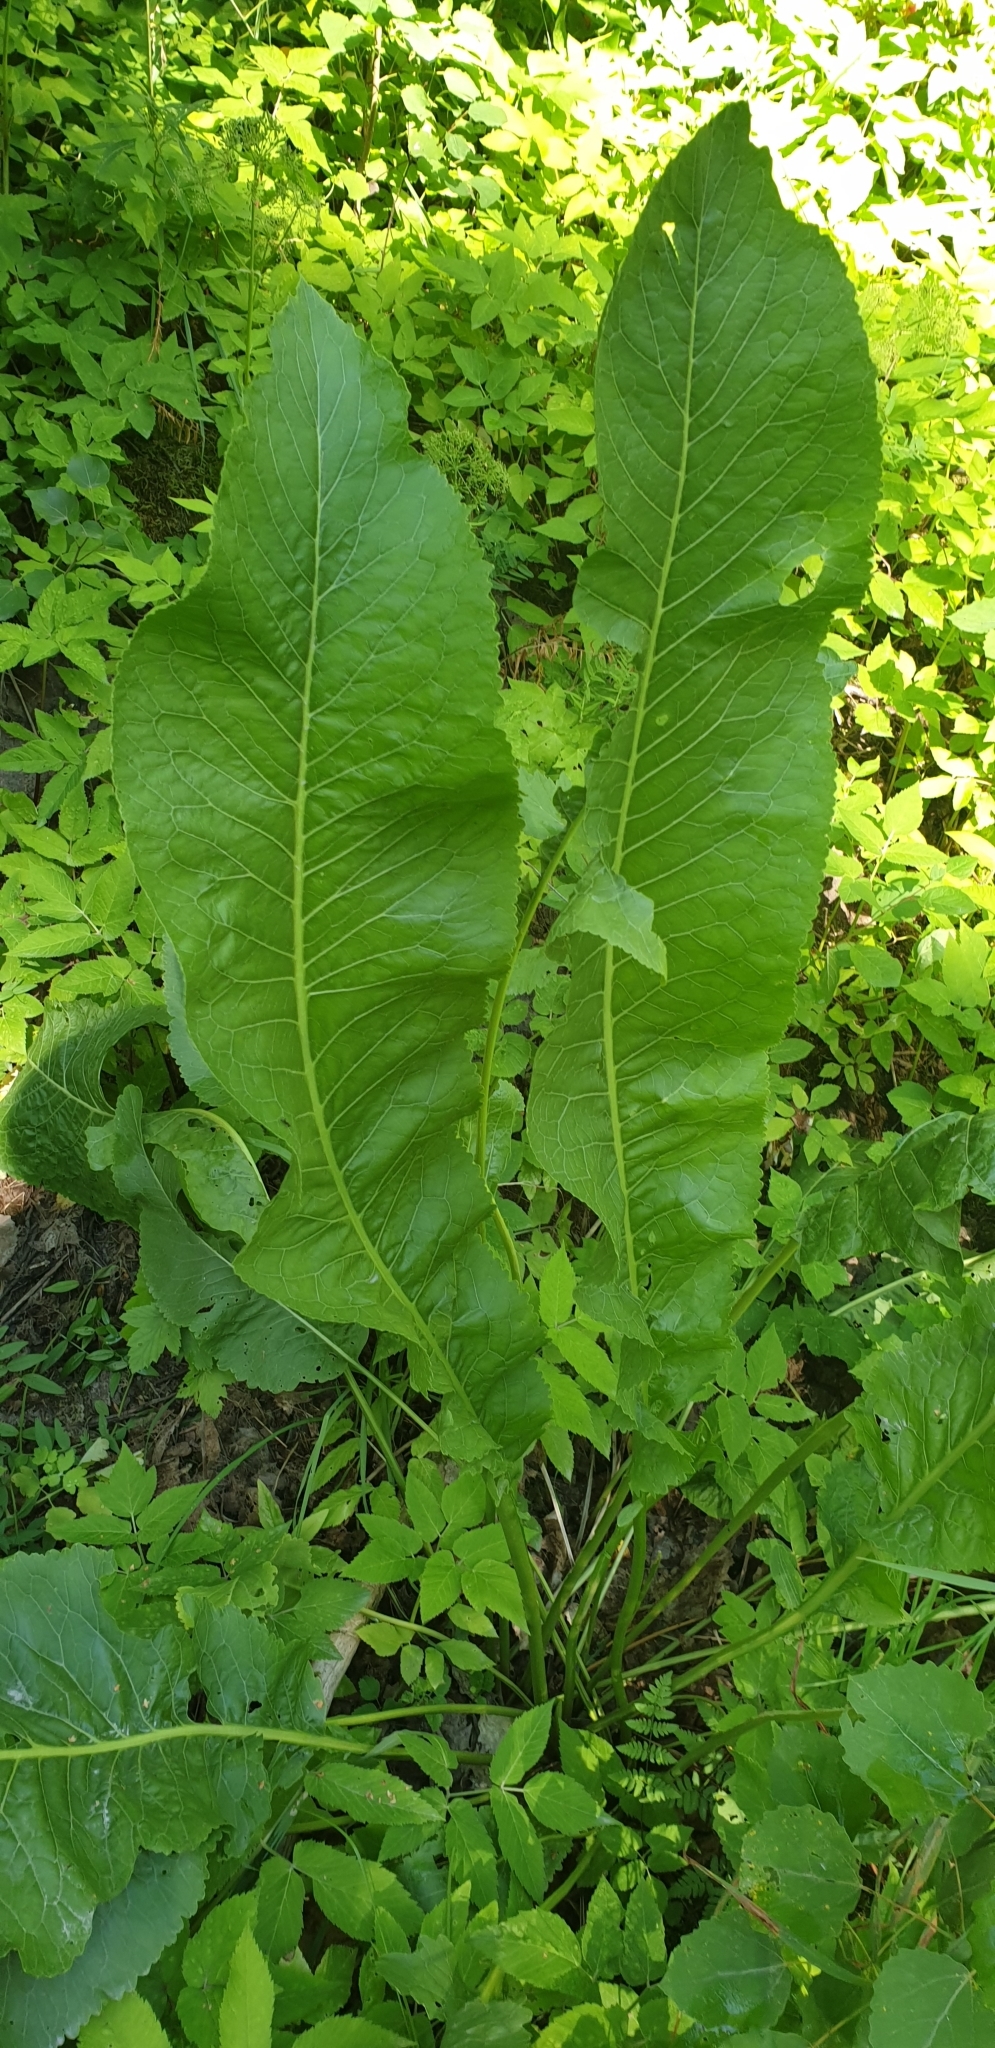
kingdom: Plantae
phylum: Tracheophyta
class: Magnoliopsida
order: Brassicales
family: Brassicaceae
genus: Armoracia
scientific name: Armoracia rusticana
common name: Horseradish
